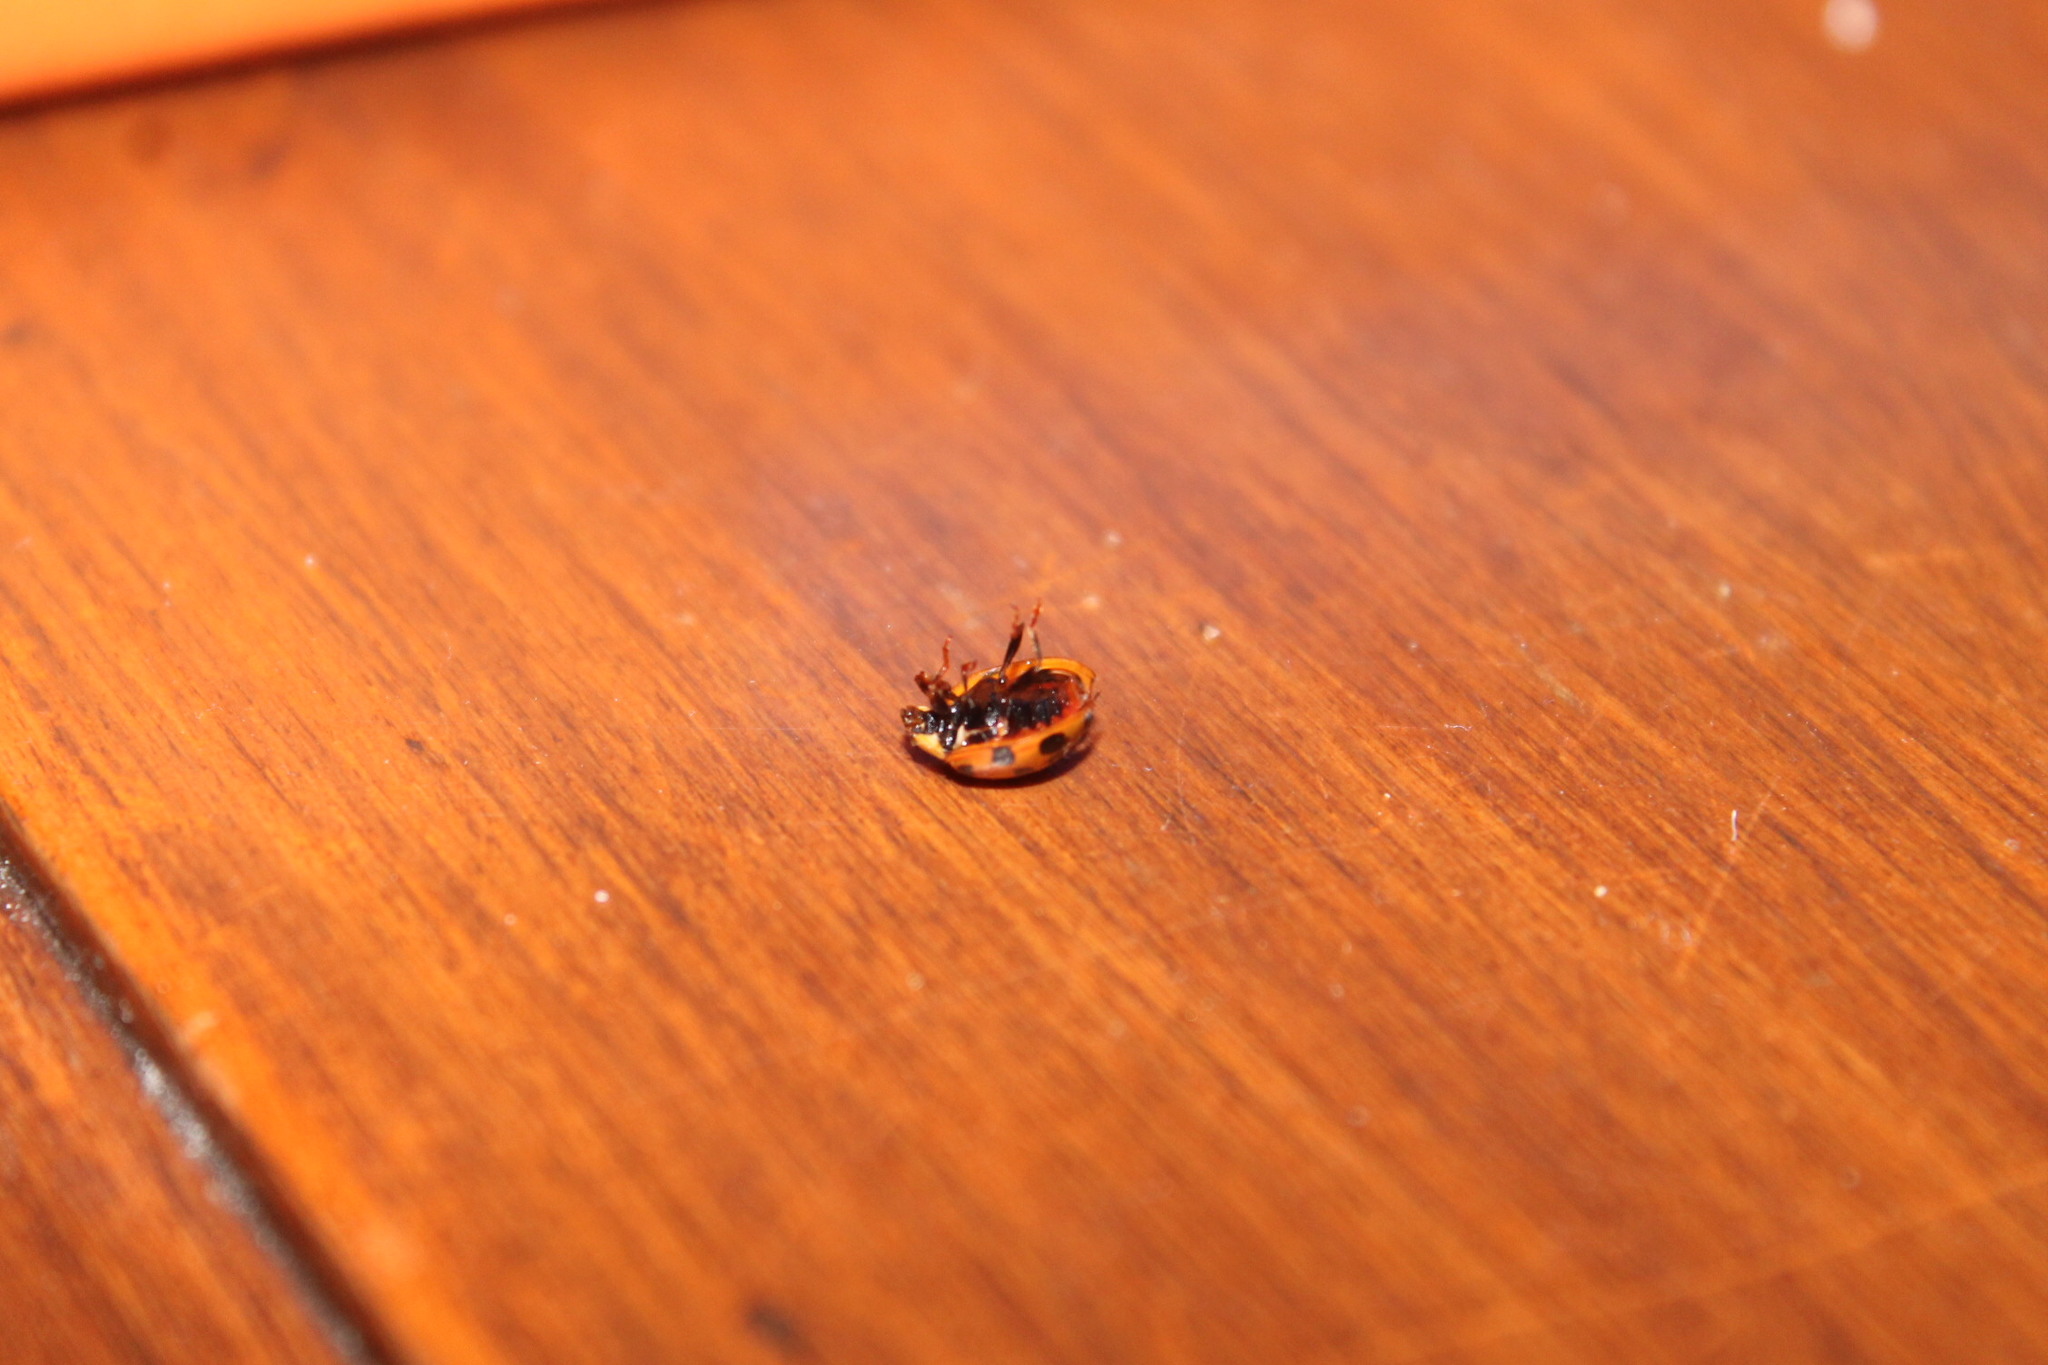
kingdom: Animalia
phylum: Arthropoda
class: Insecta
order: Coleoptera
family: Coccinellidae
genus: Harmonia
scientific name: Harmonia axyridis
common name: Harlequin ladybird
